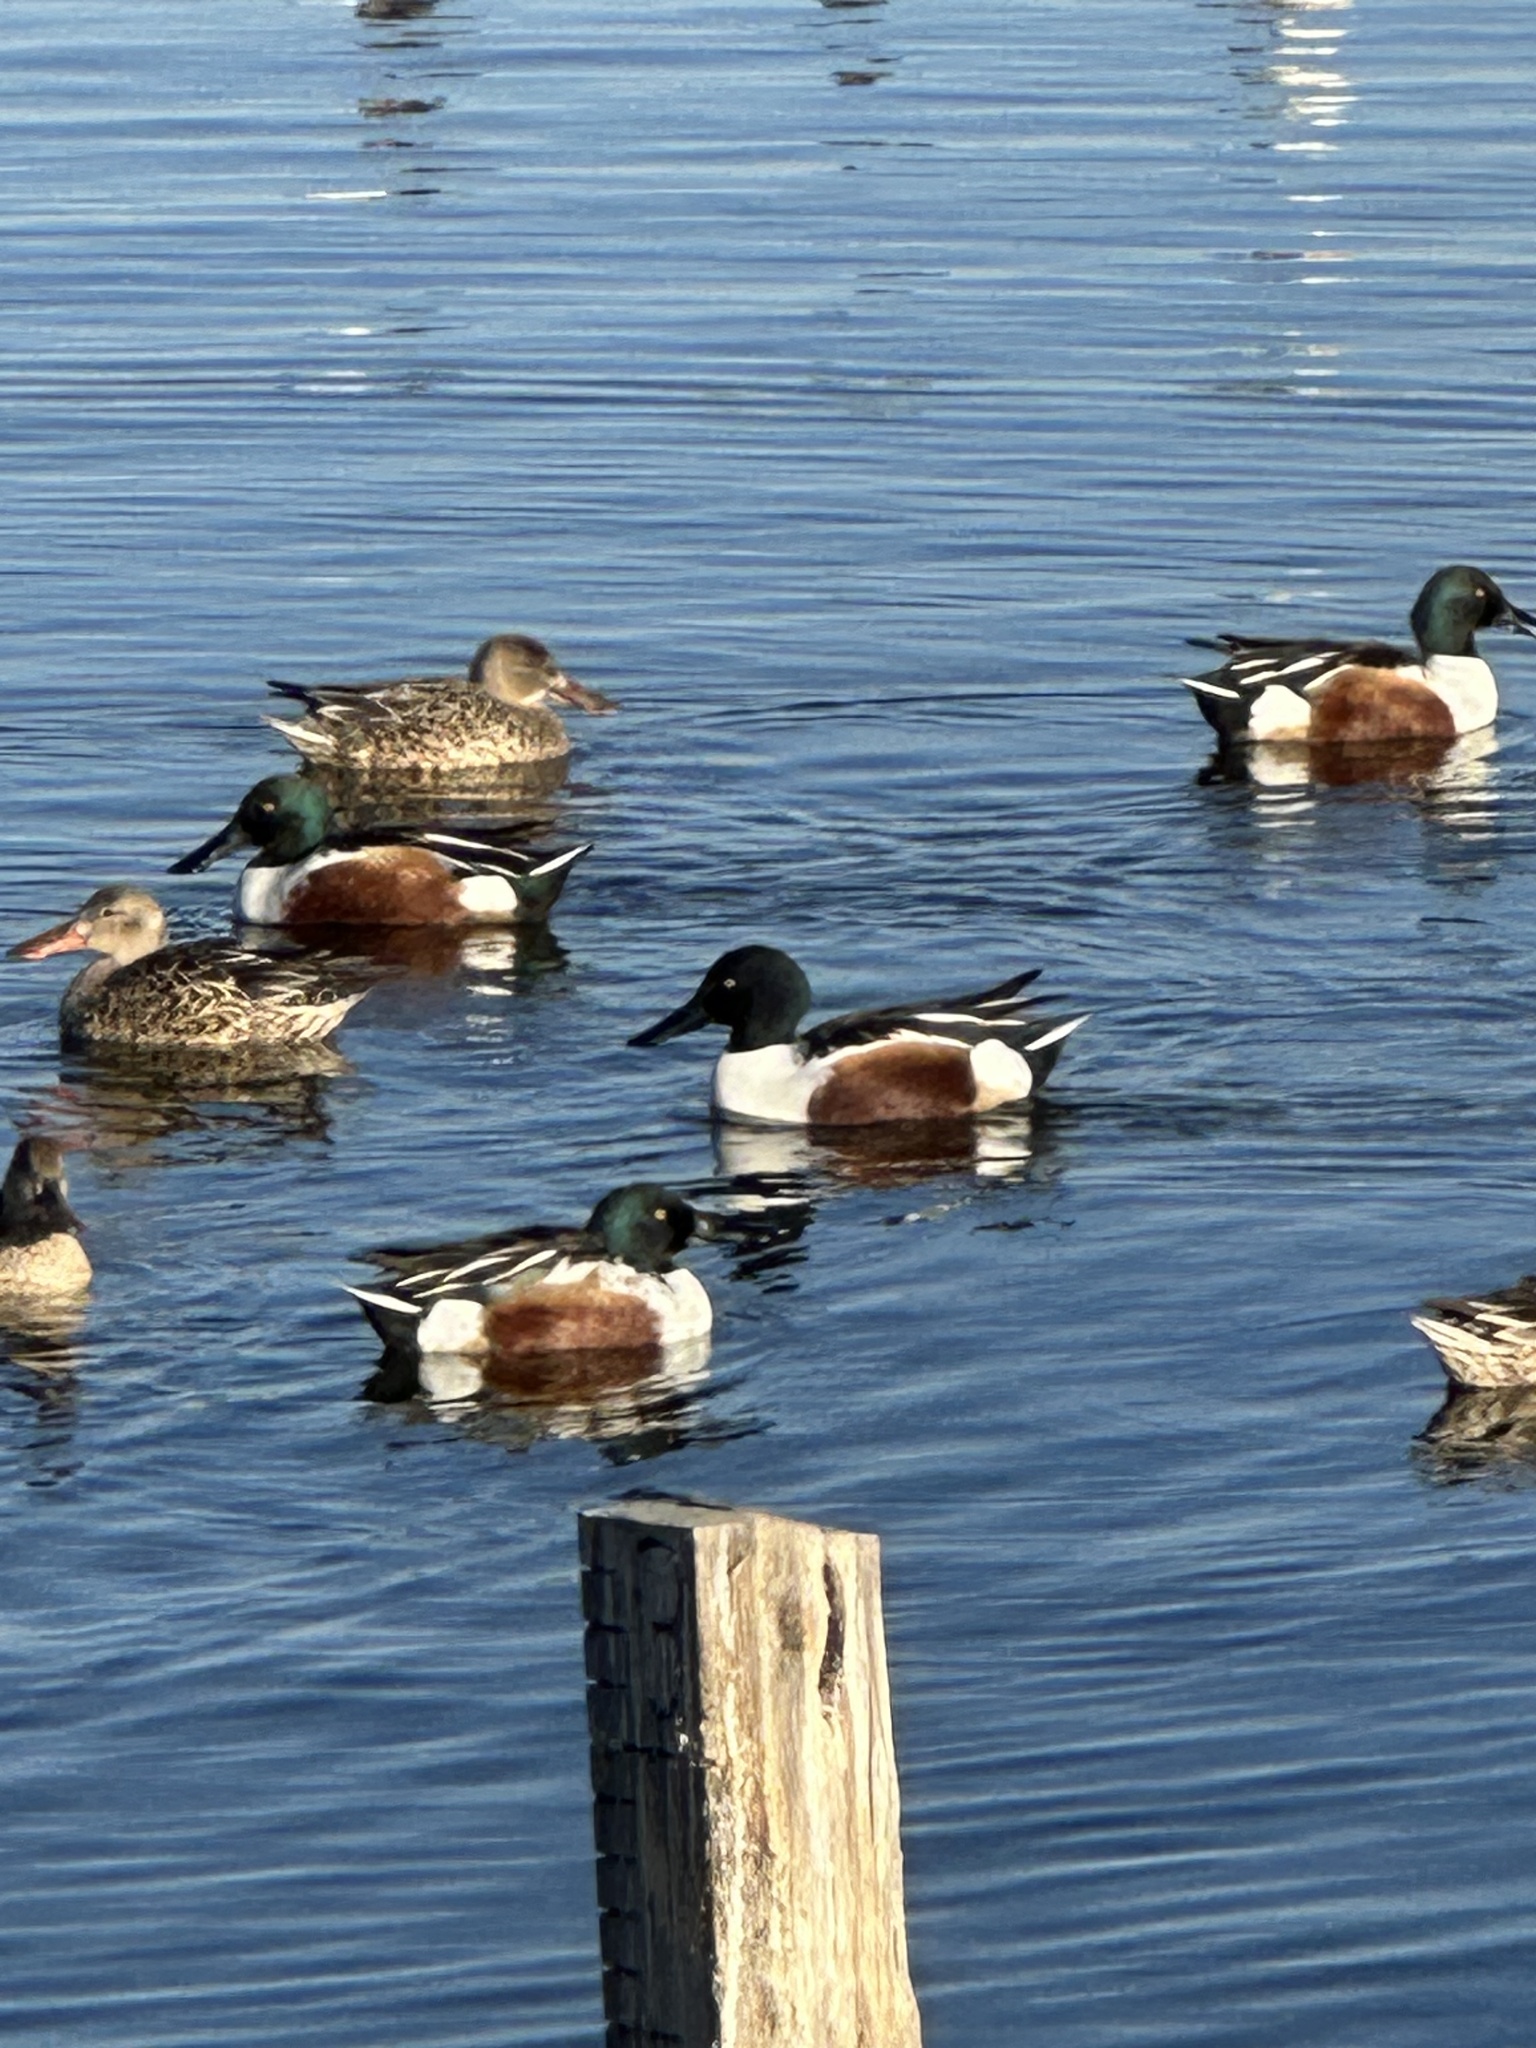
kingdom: Animalia
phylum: Chordata
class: Aves
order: Anseriformes
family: Anatidae
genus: Spatula
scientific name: Spatula clypeata
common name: Northern shoveler
